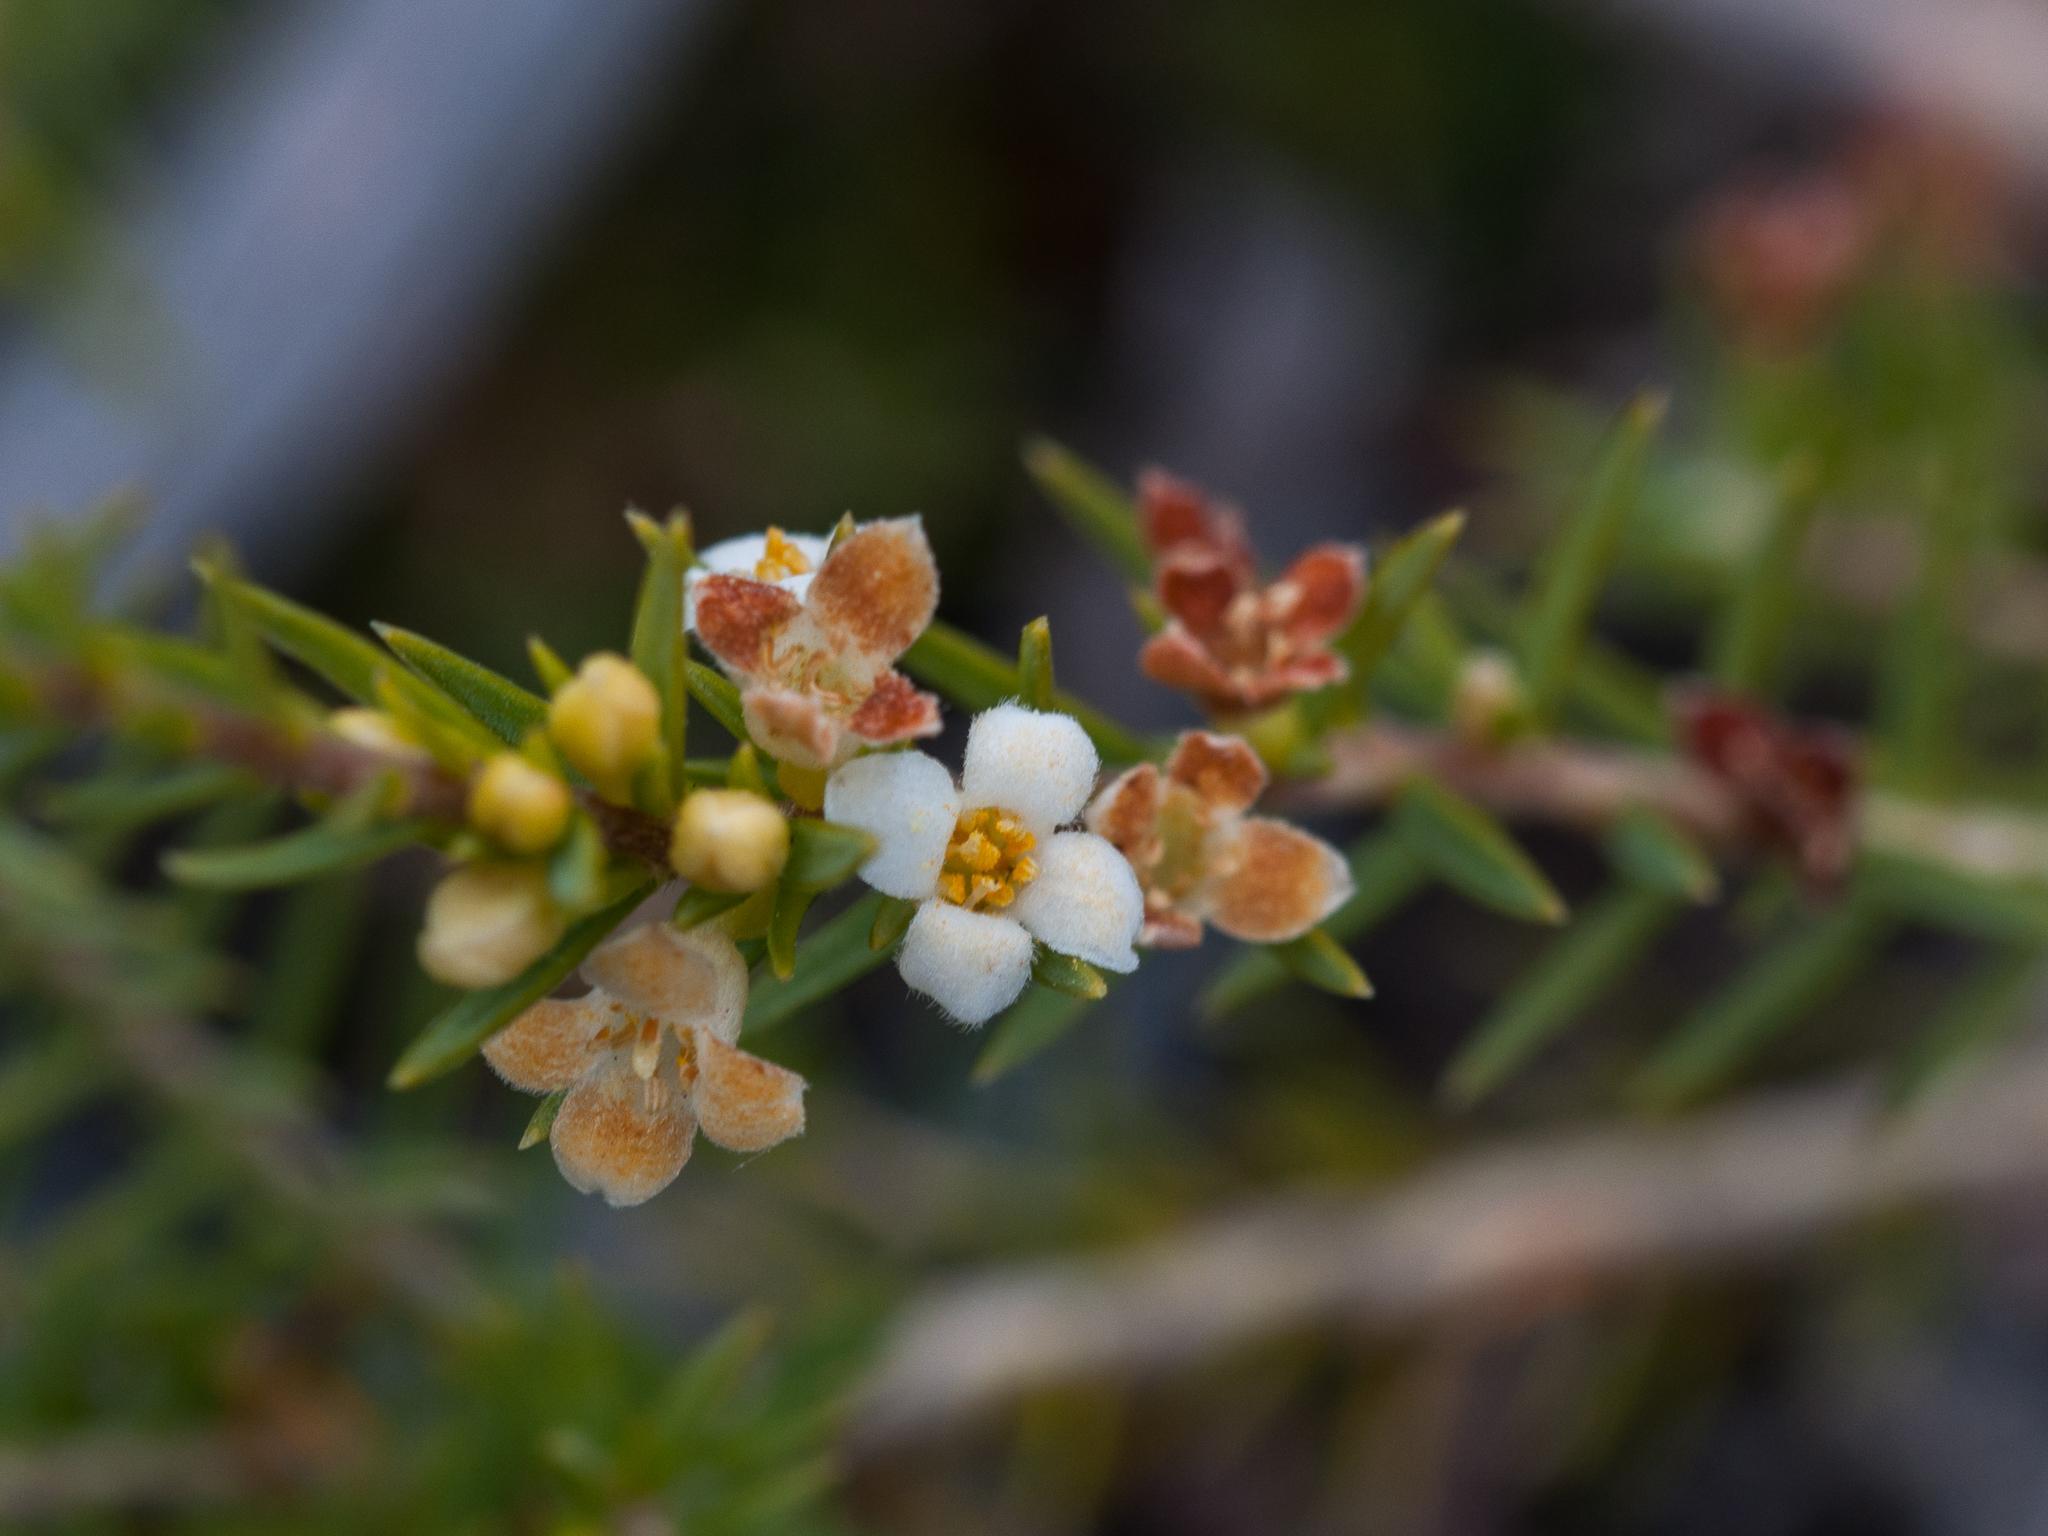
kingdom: Plantae
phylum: Tracheophyta
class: Magnoliopsida
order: Malvales
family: Thymelaeaceae
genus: Lachnaea
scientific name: Lachnaea filicaulis
